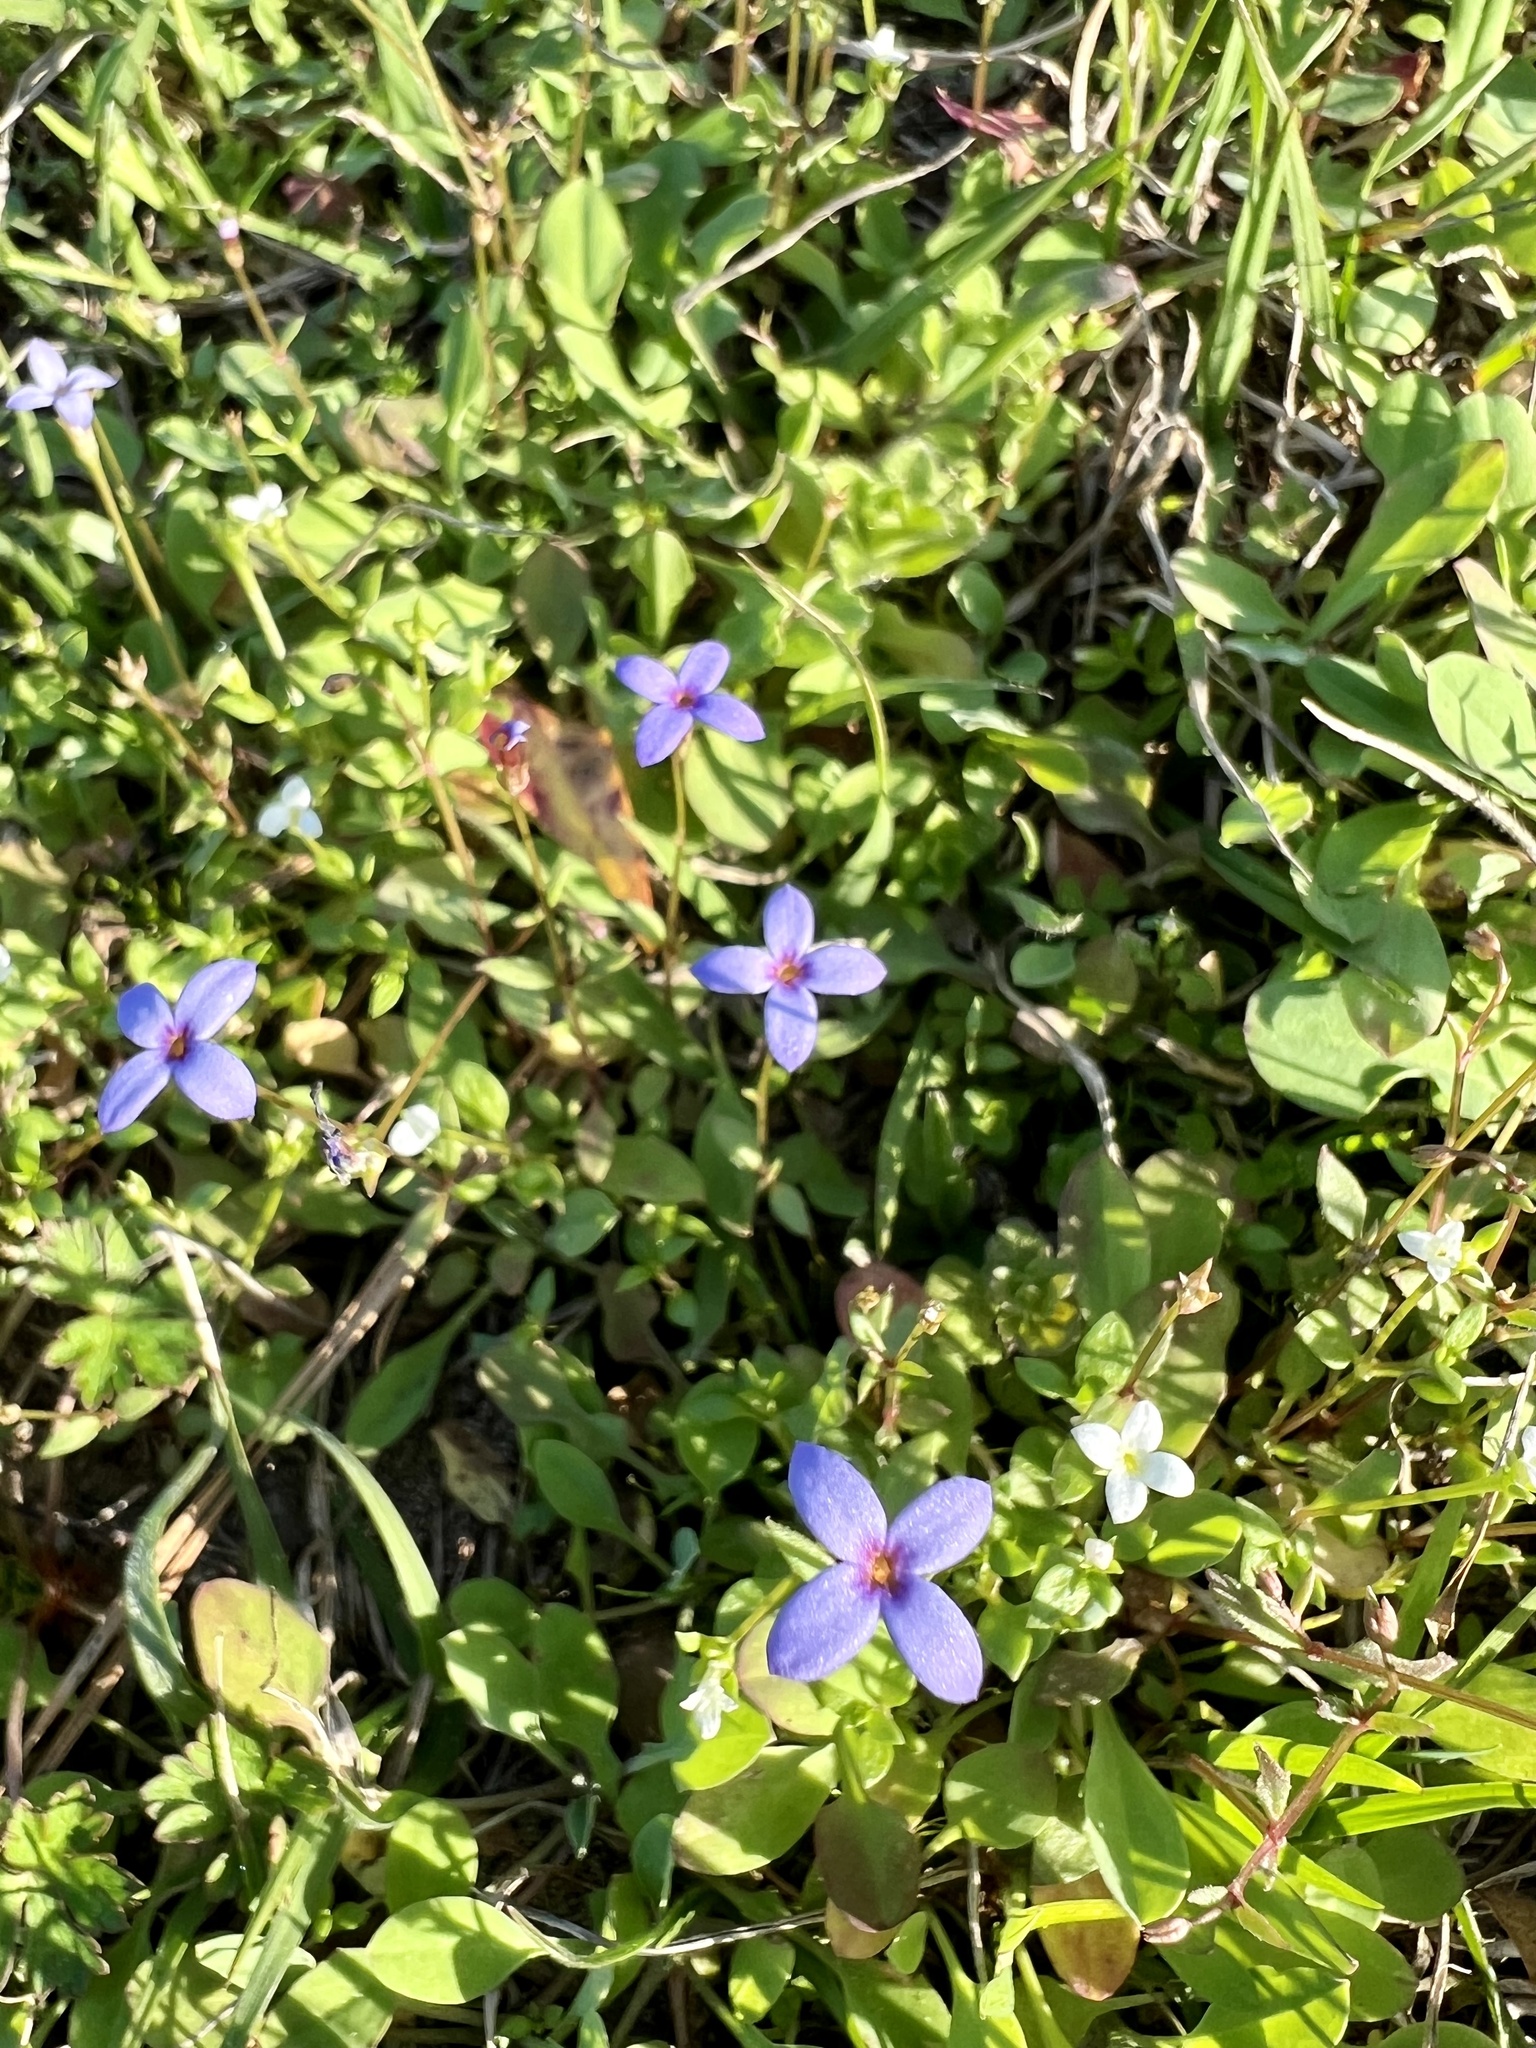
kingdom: Plantae
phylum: Tracheophyta
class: Magnoliopsida
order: Gentianales
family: Rubiaceae
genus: Houstonia
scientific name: Houstonia pusilla
